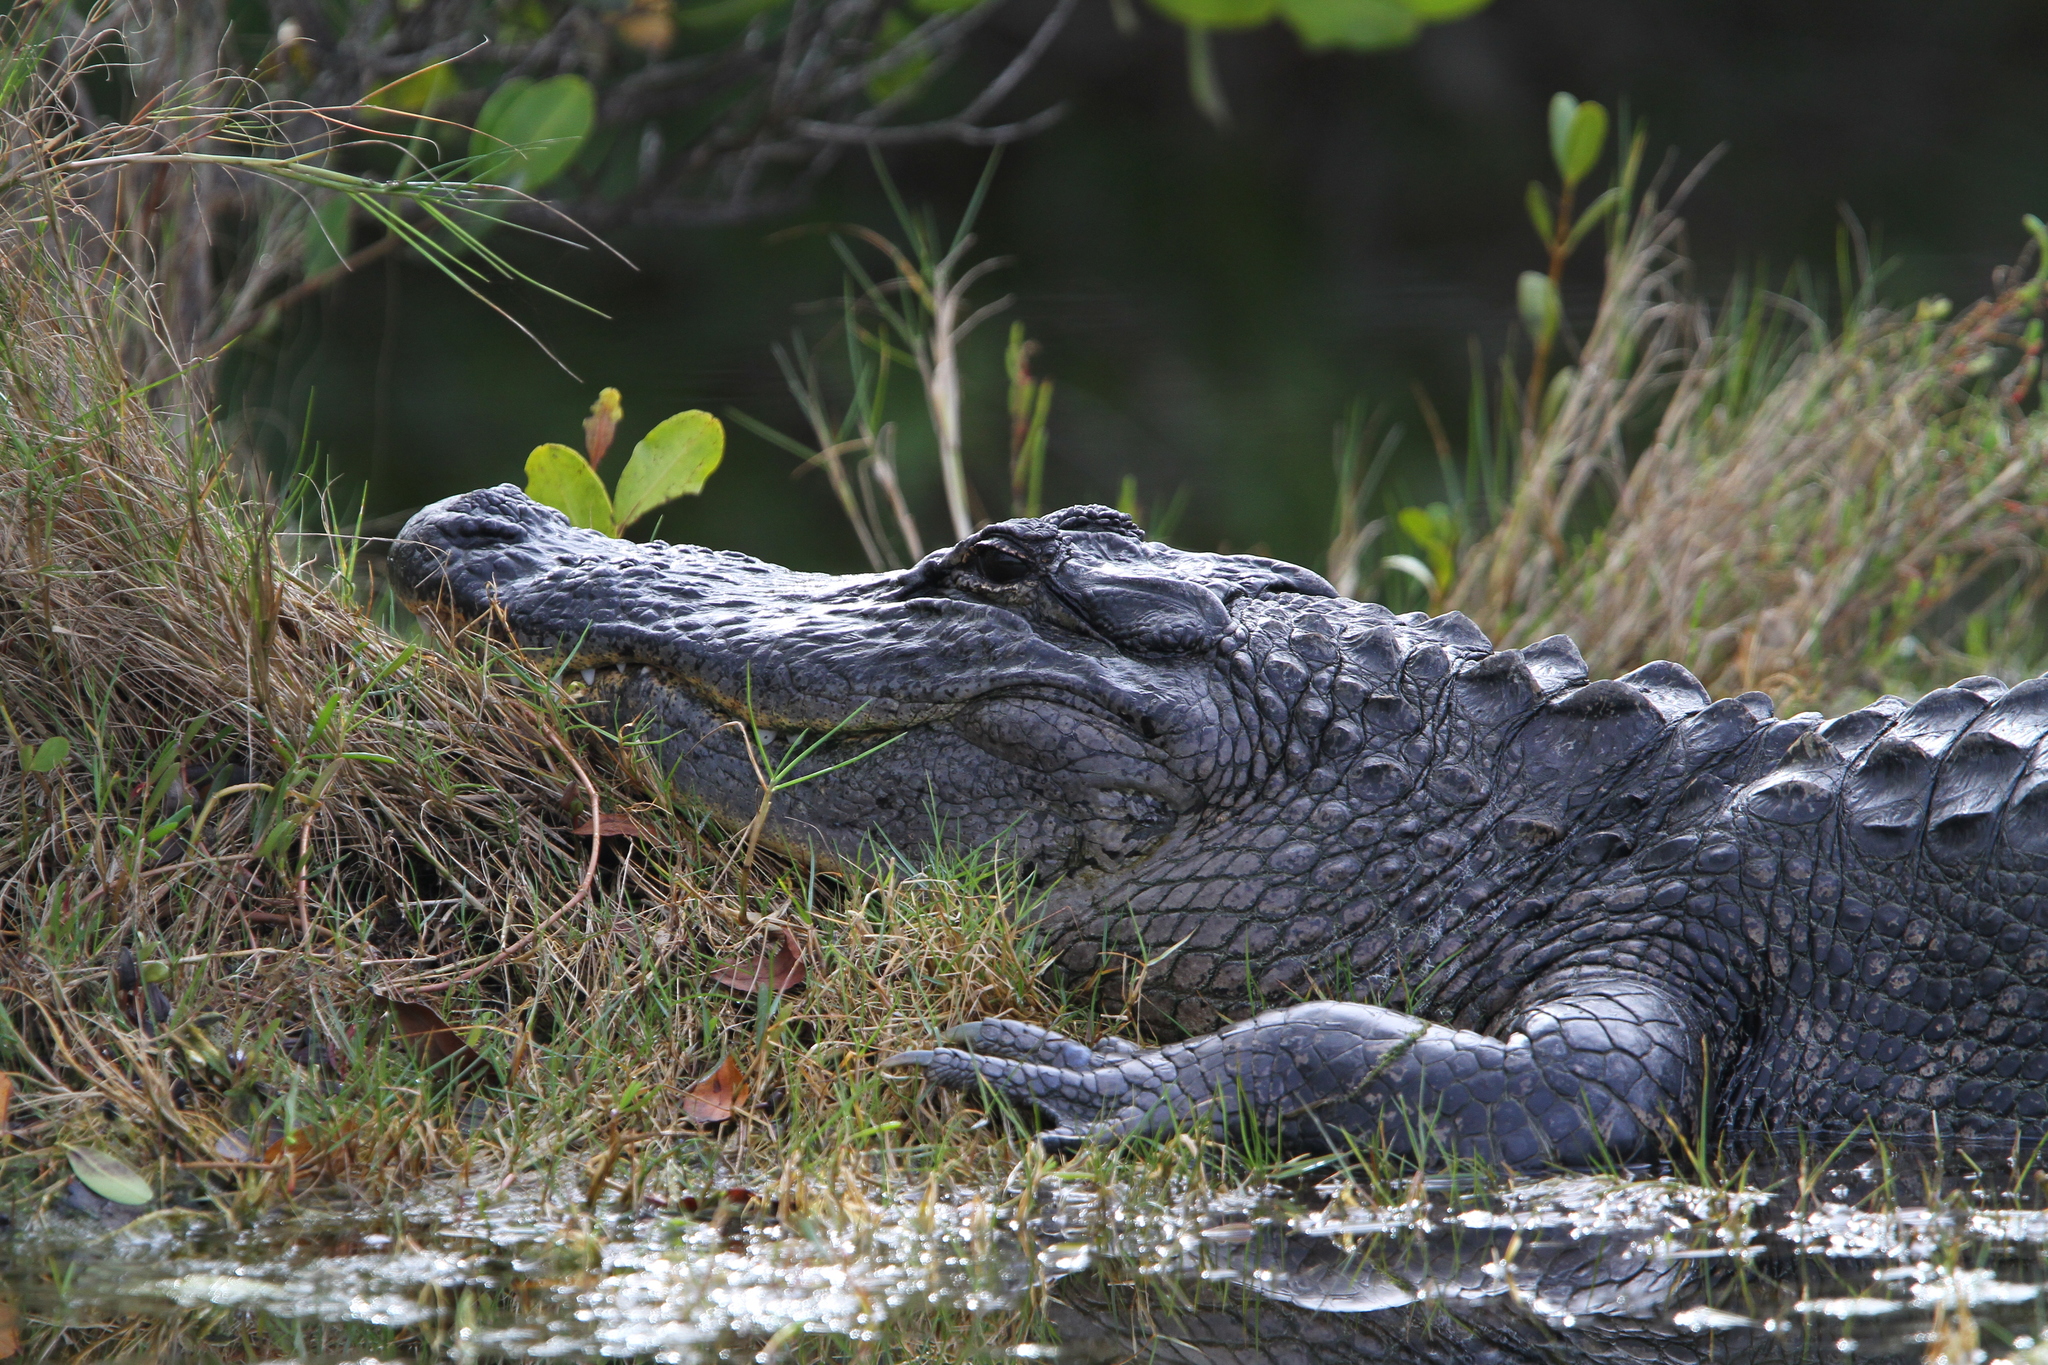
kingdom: Animalia
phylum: Chordata
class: Crocodylia
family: Alligatoridae
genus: Alligator
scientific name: Alligator mississippiensis
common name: American alligator
